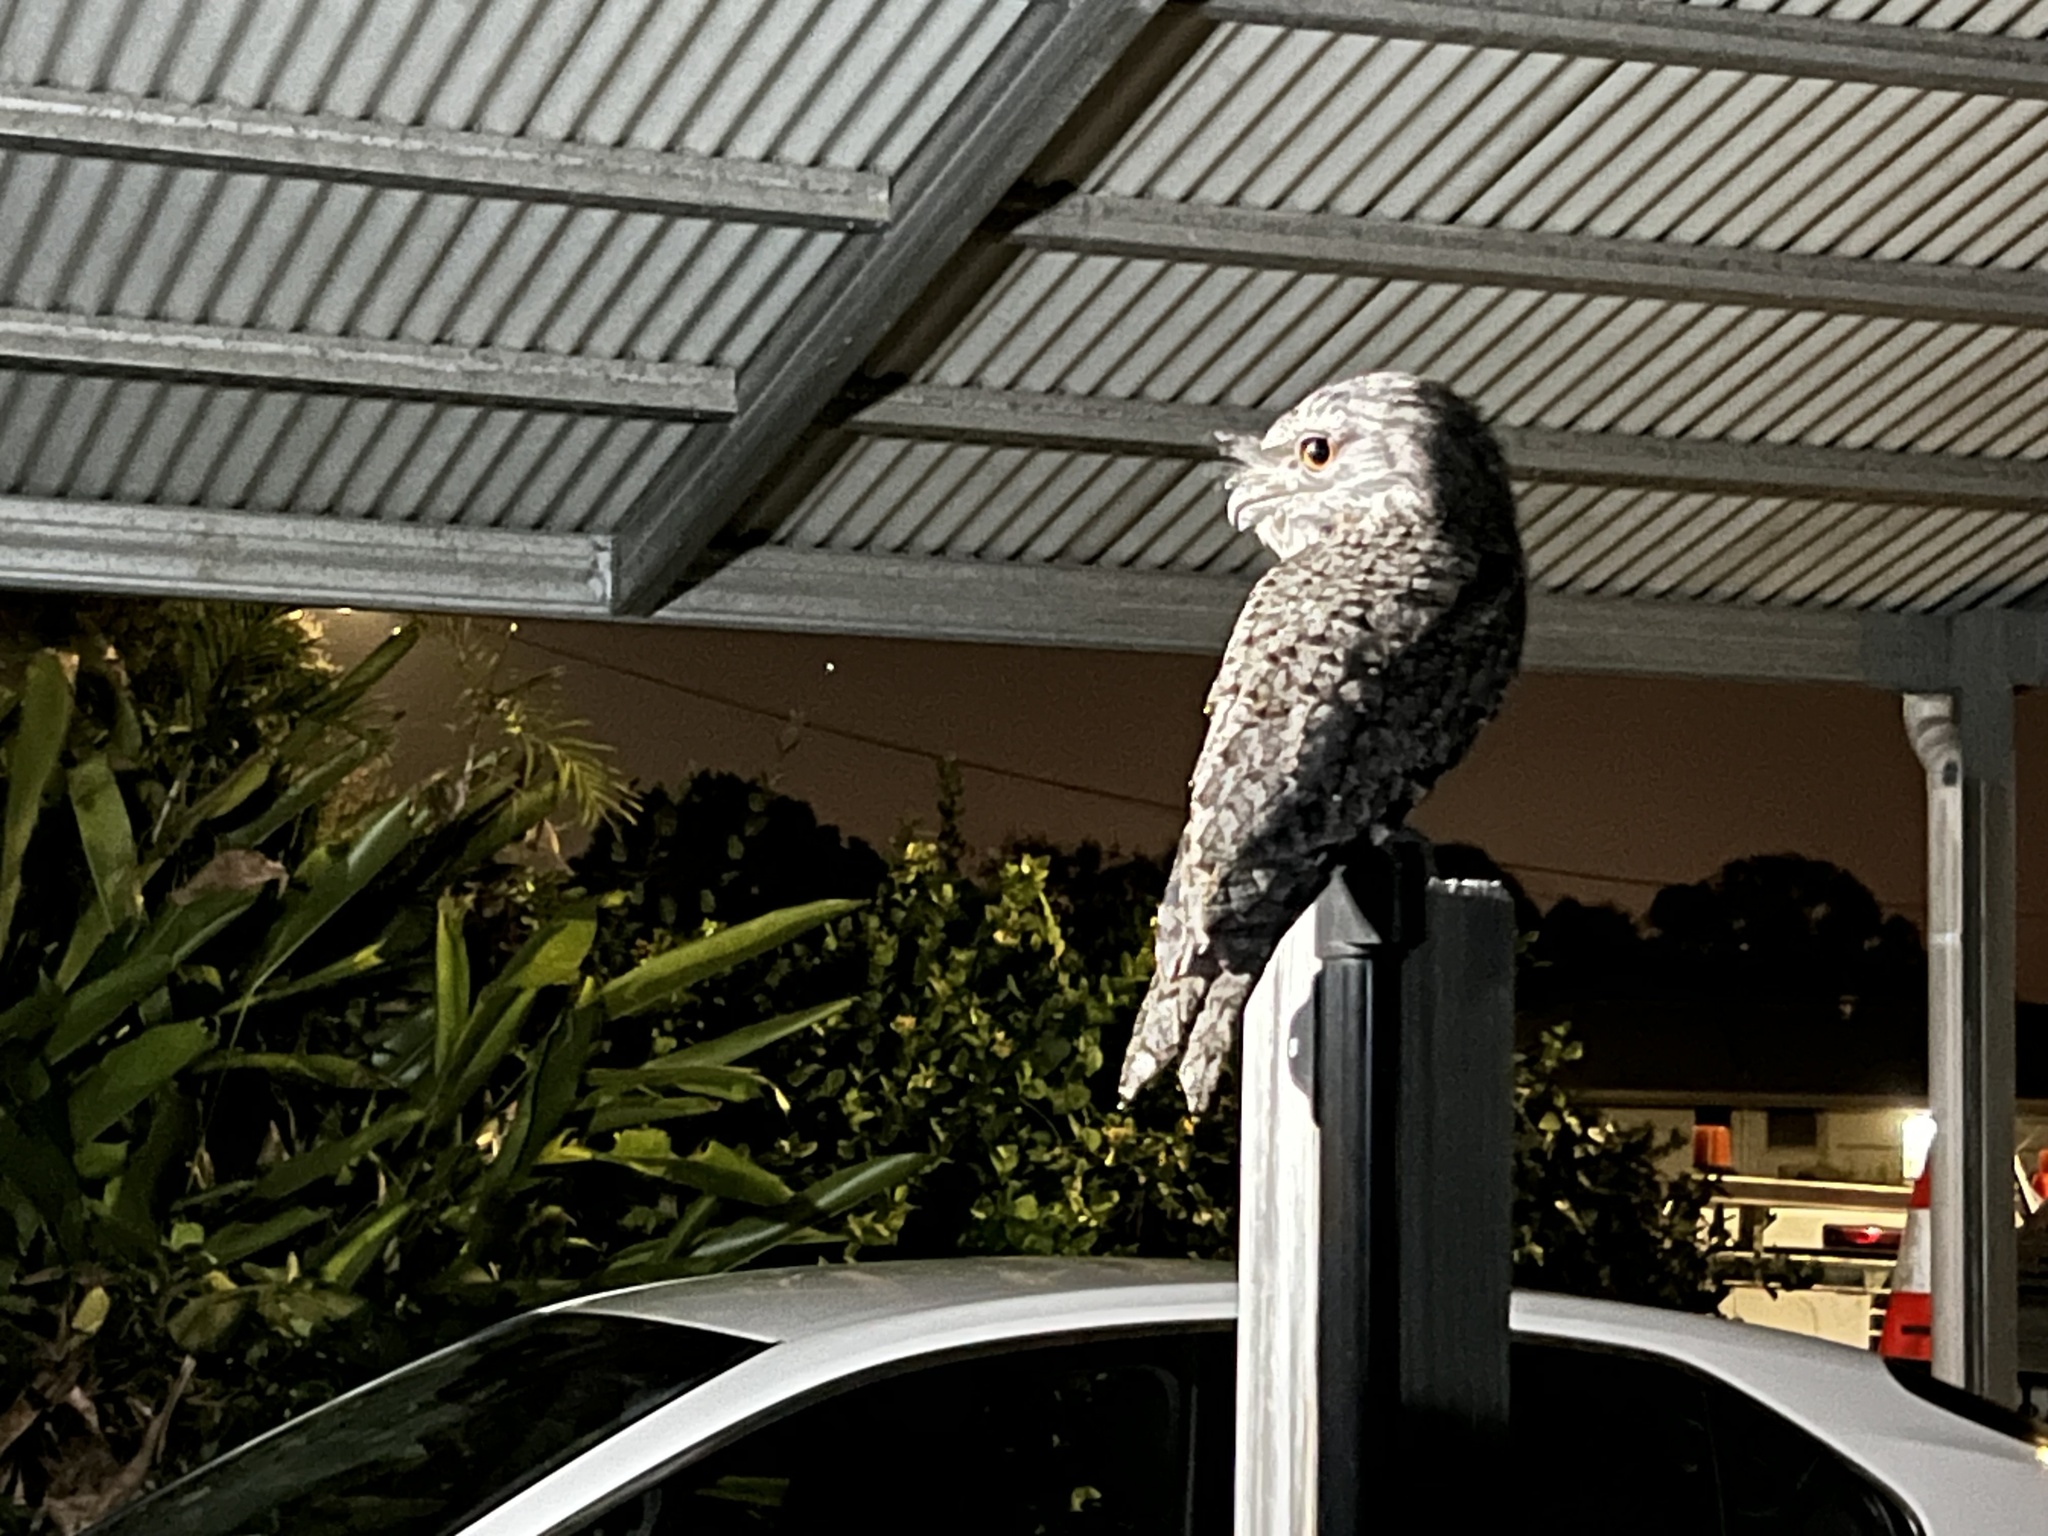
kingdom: Animalia
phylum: Chordata
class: Aves
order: Caprimulgiformes
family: Podargidae
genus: Podargus
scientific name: Podargus strigoides
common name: Tawny frogmouth
